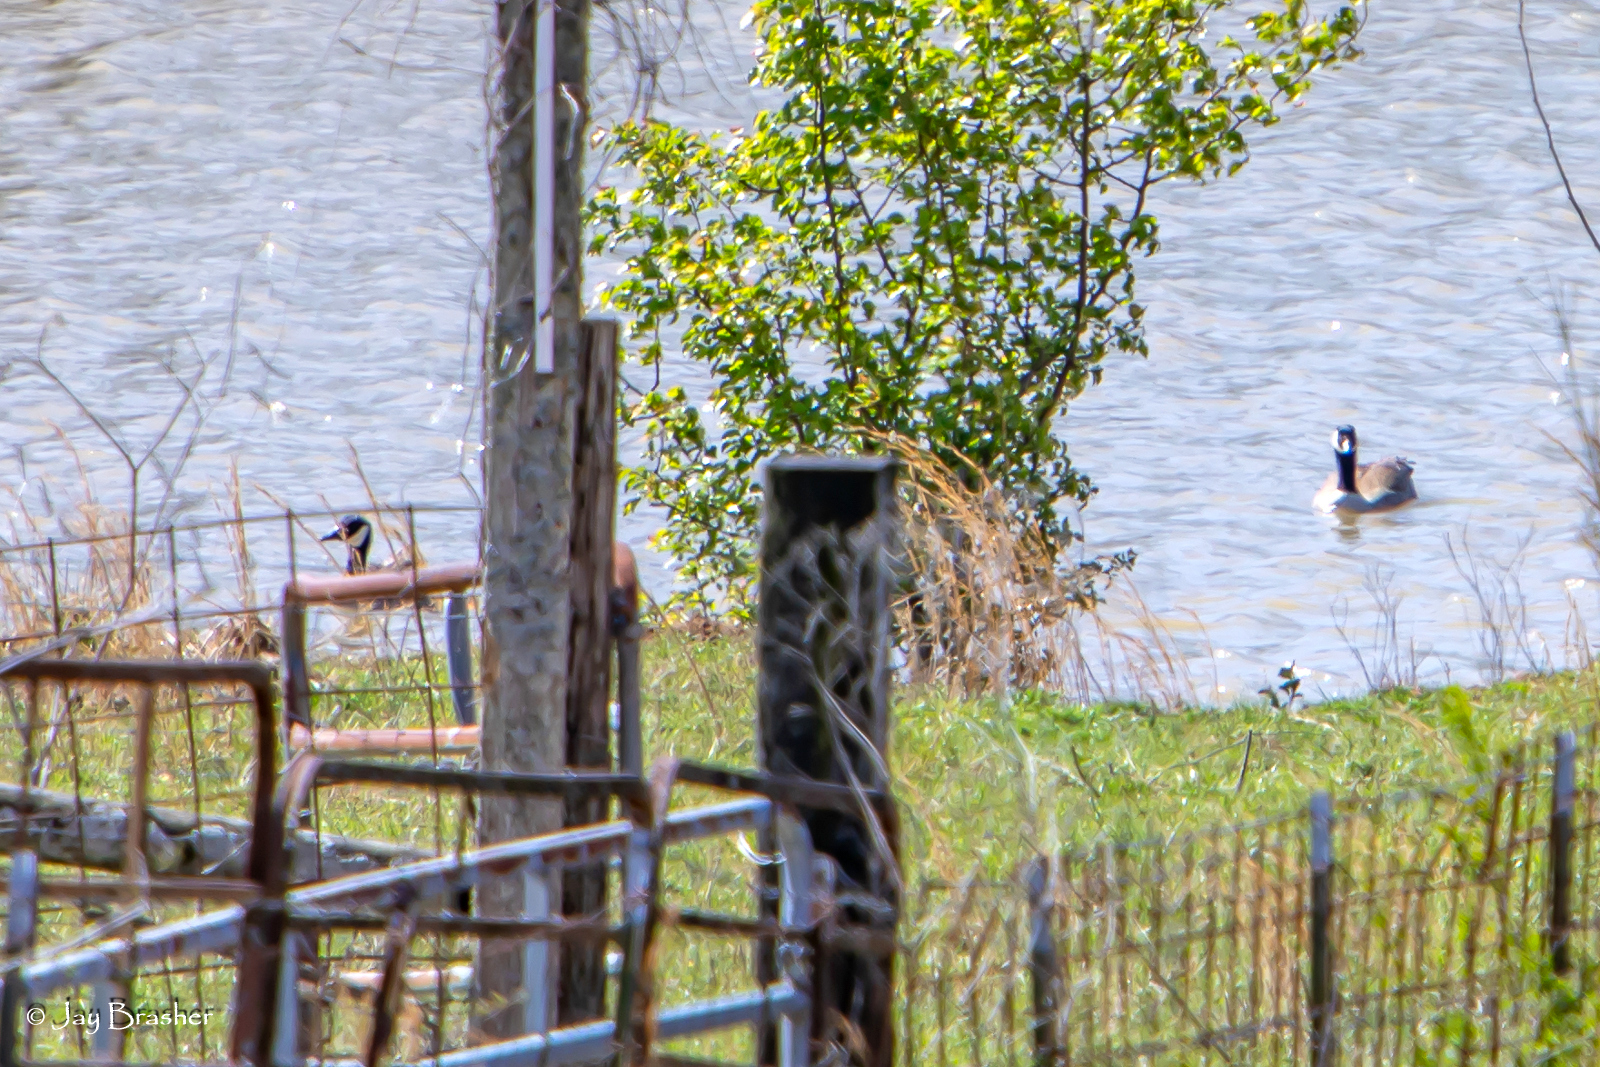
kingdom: Animalia
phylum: Chordata
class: Aves
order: Anseriformes
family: Anatidae
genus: Branta
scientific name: Branta canadensis
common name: Canada goose
